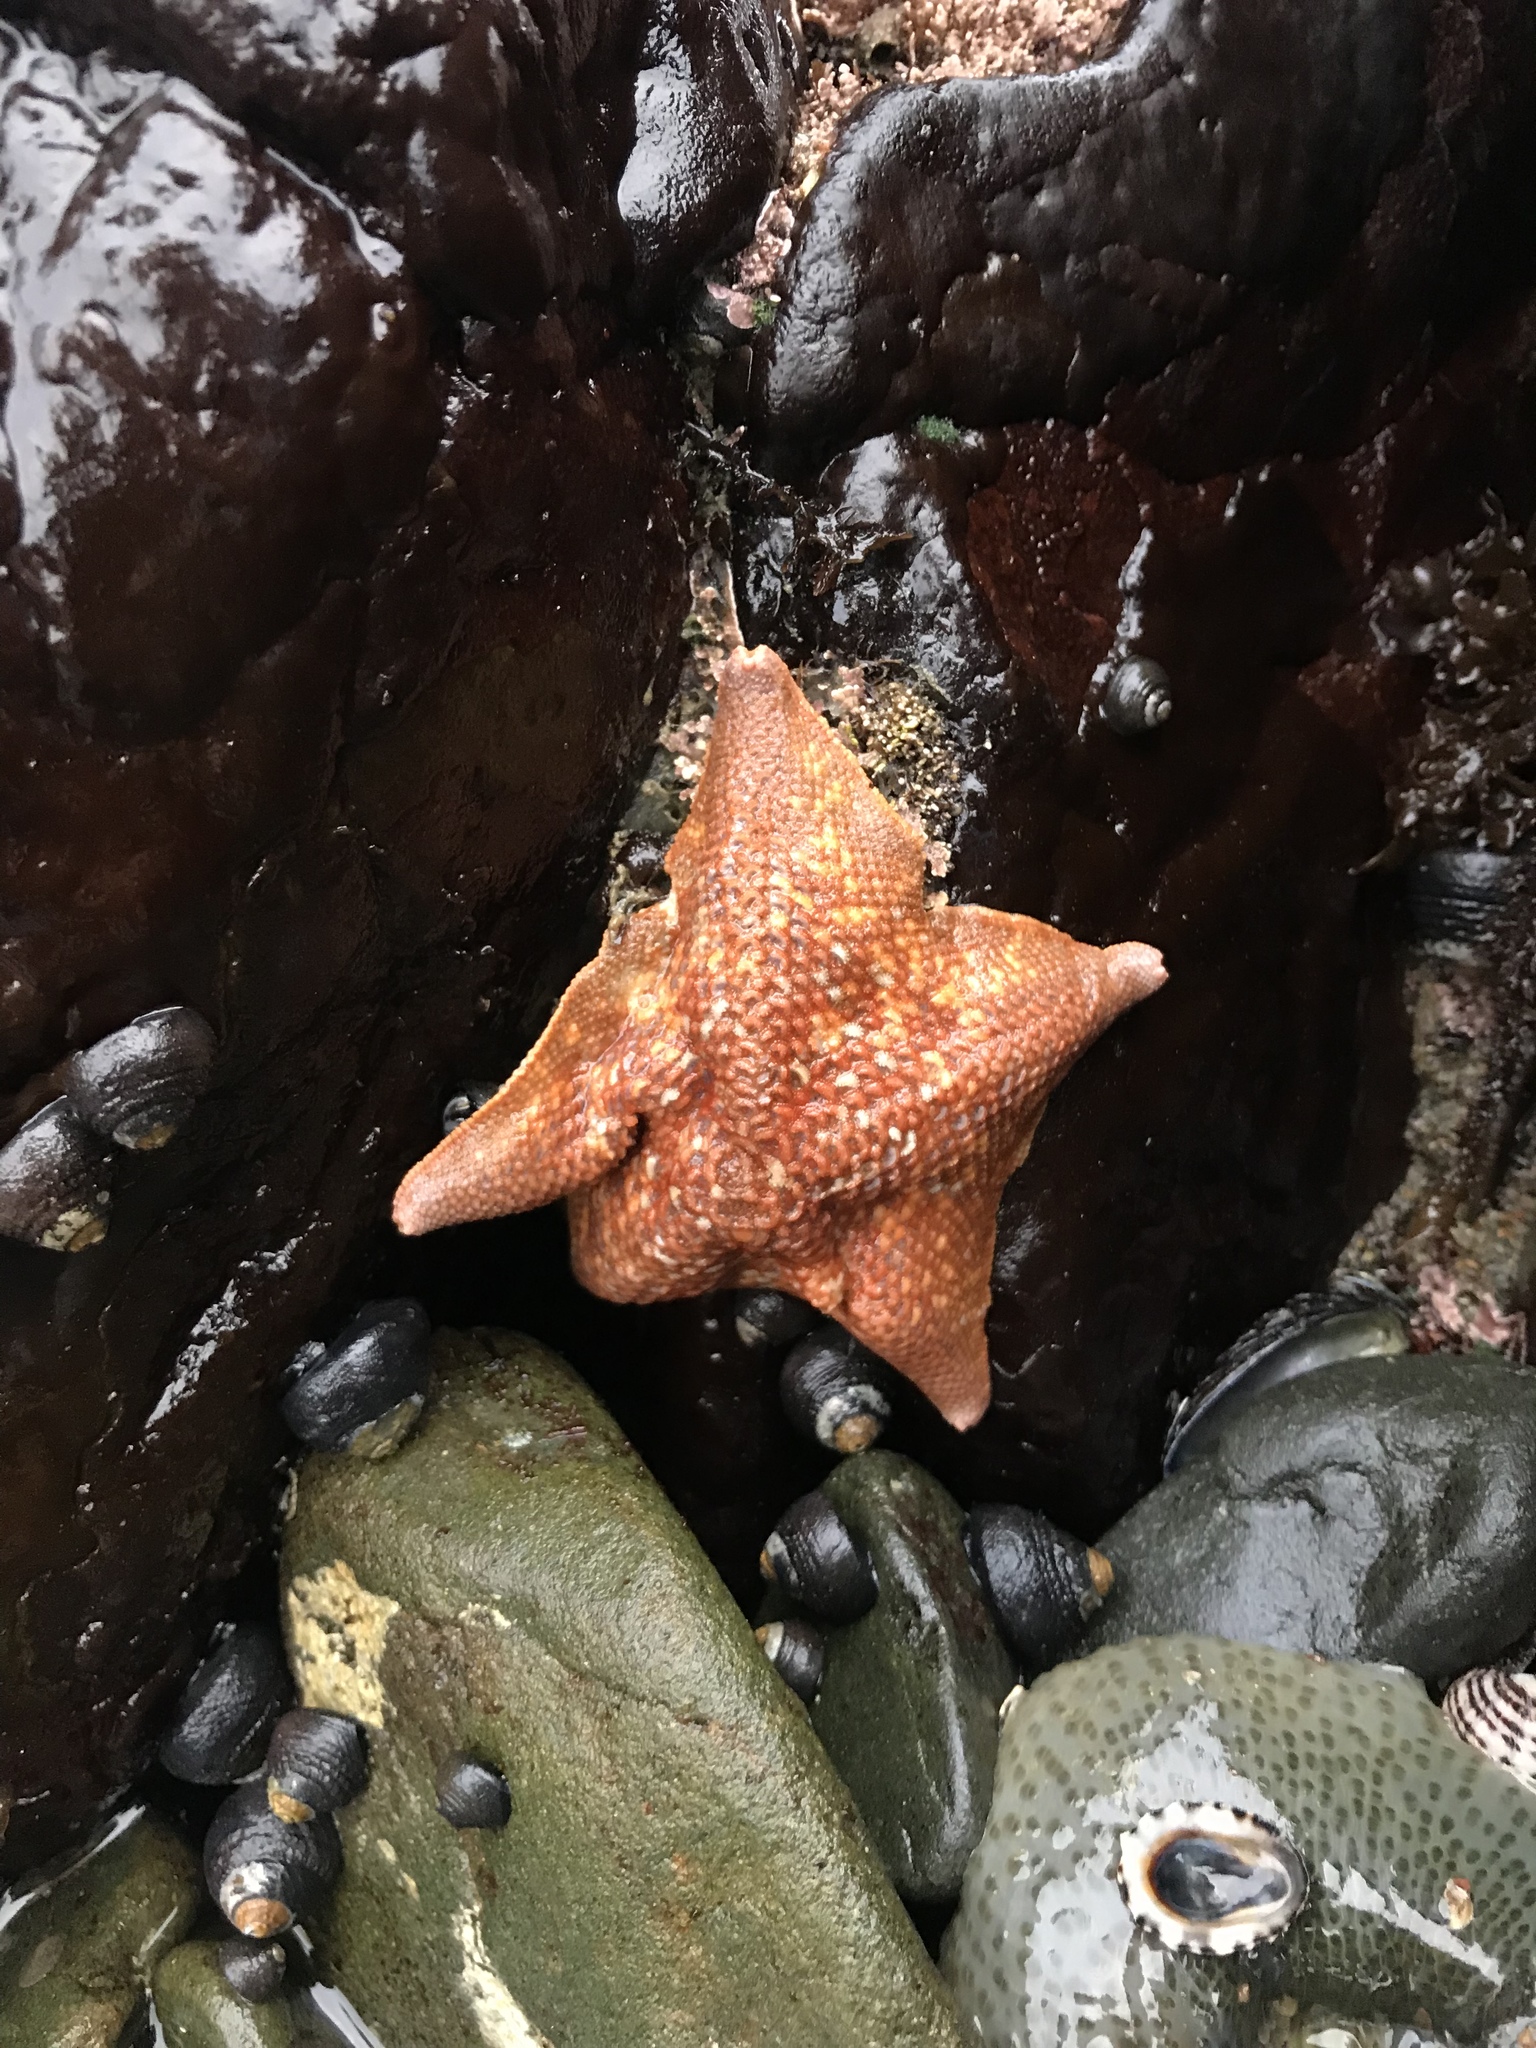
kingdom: Animalia
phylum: Echinodermata
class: Asteroidea
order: Valvatida
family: Asterinidae
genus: Patiria
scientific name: Patiria miniata
